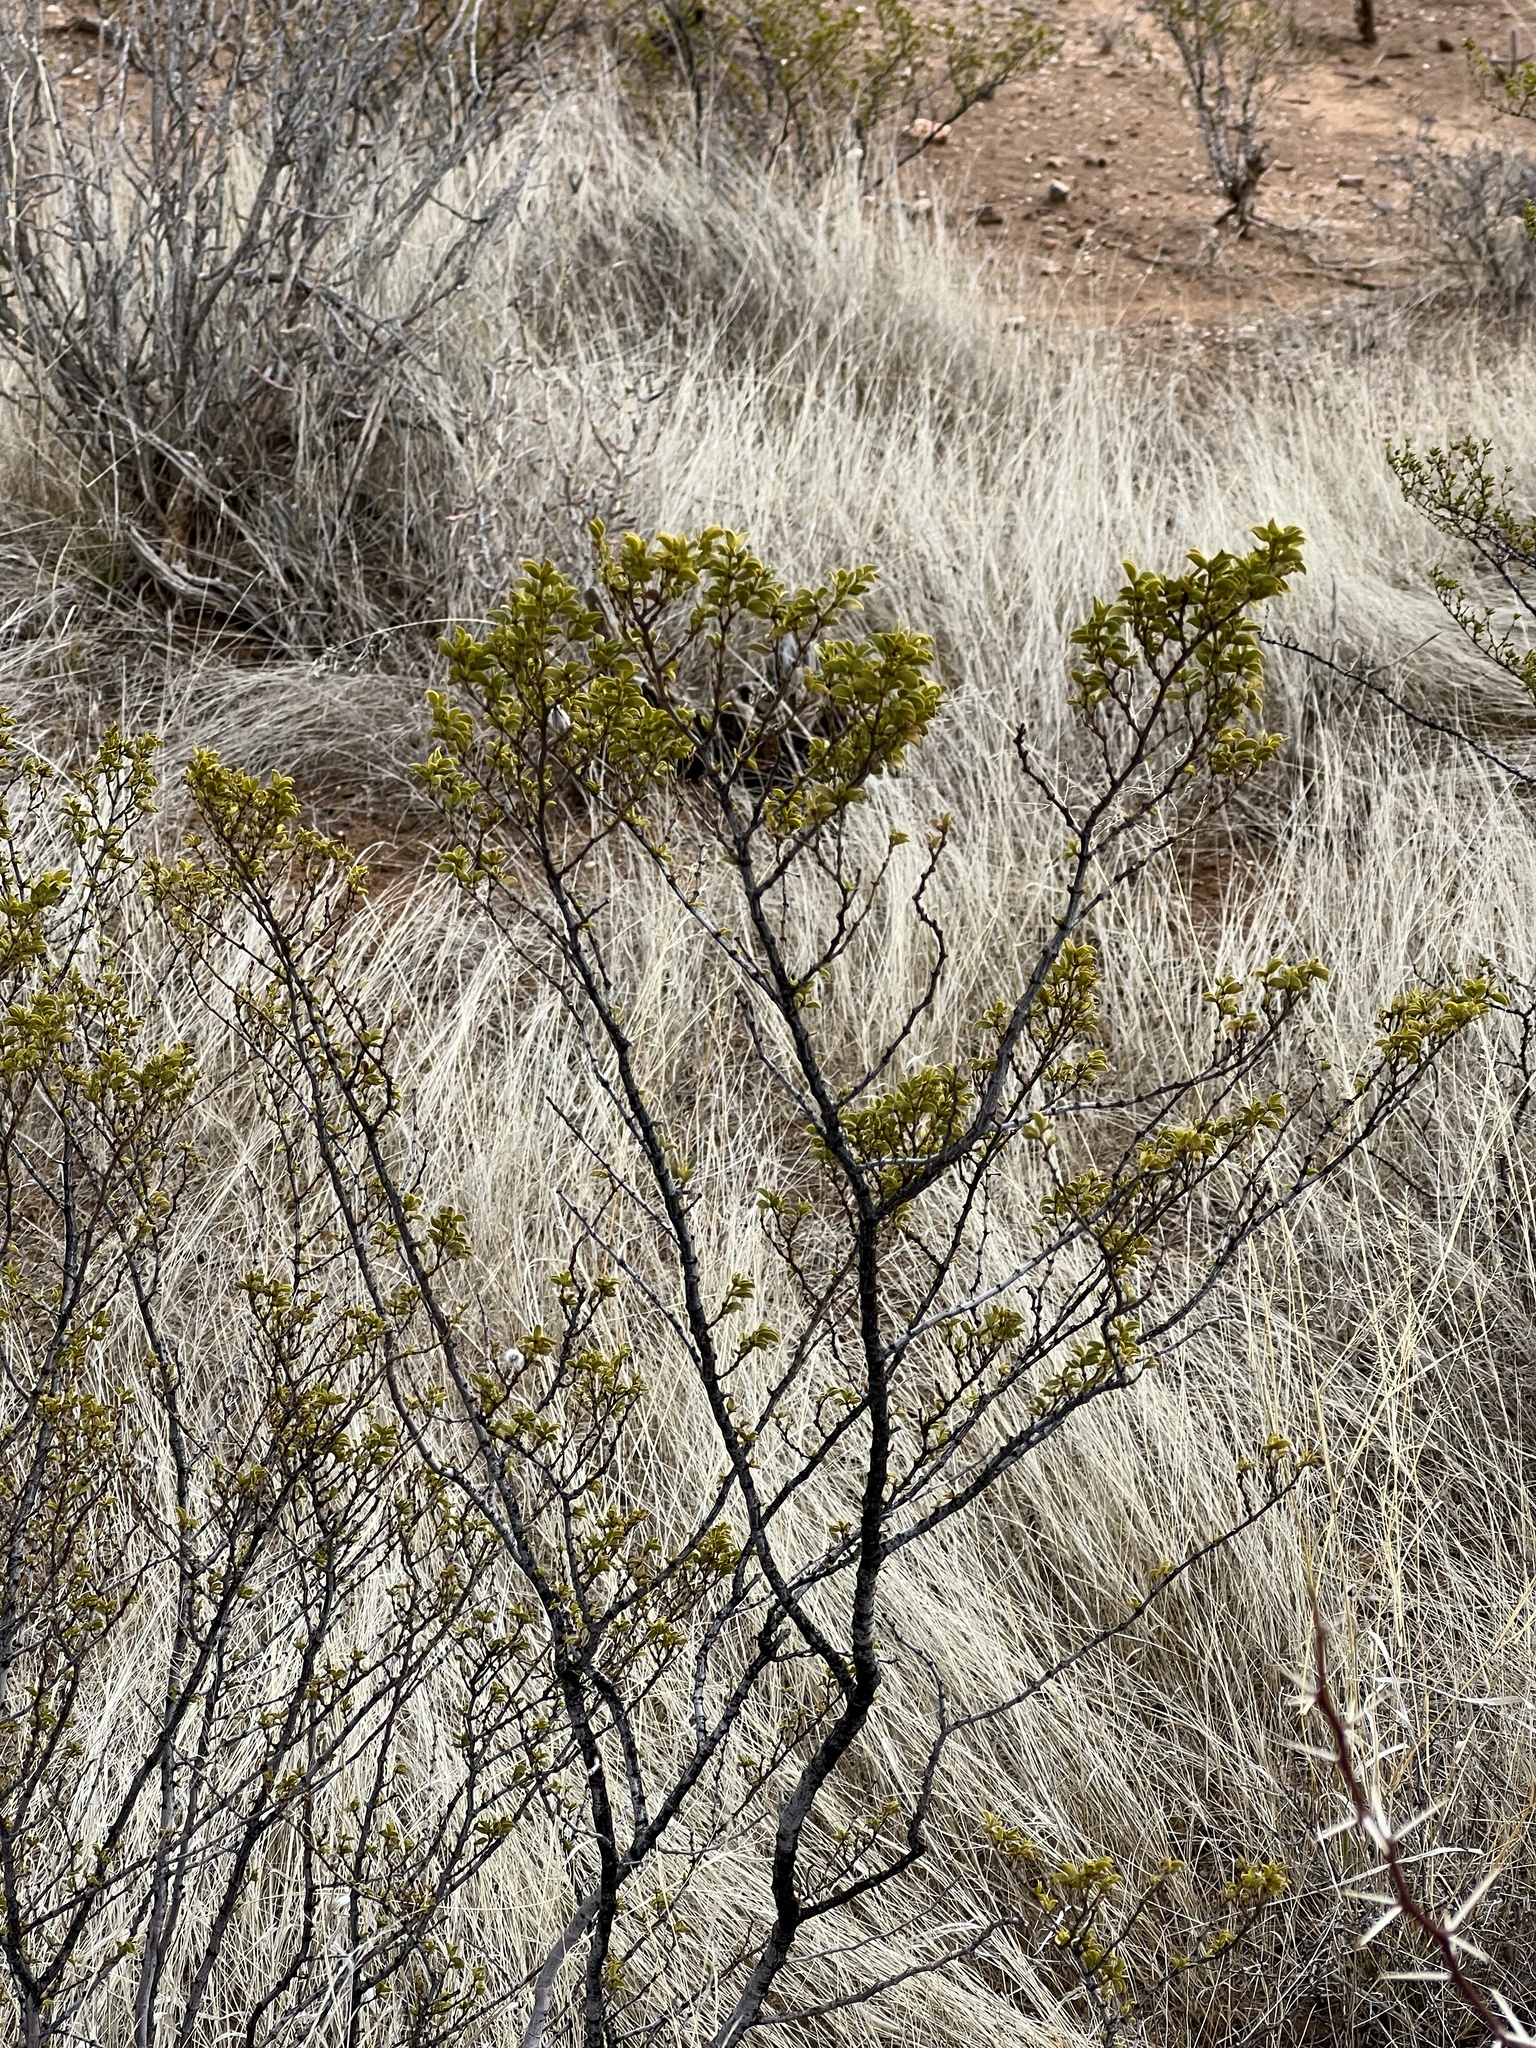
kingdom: Plantae
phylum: Tracheophyta
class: Magnoliopsida
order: Zygophyllales
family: Zygophyllaceae
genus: Larrea
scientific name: Larrea tridentata
